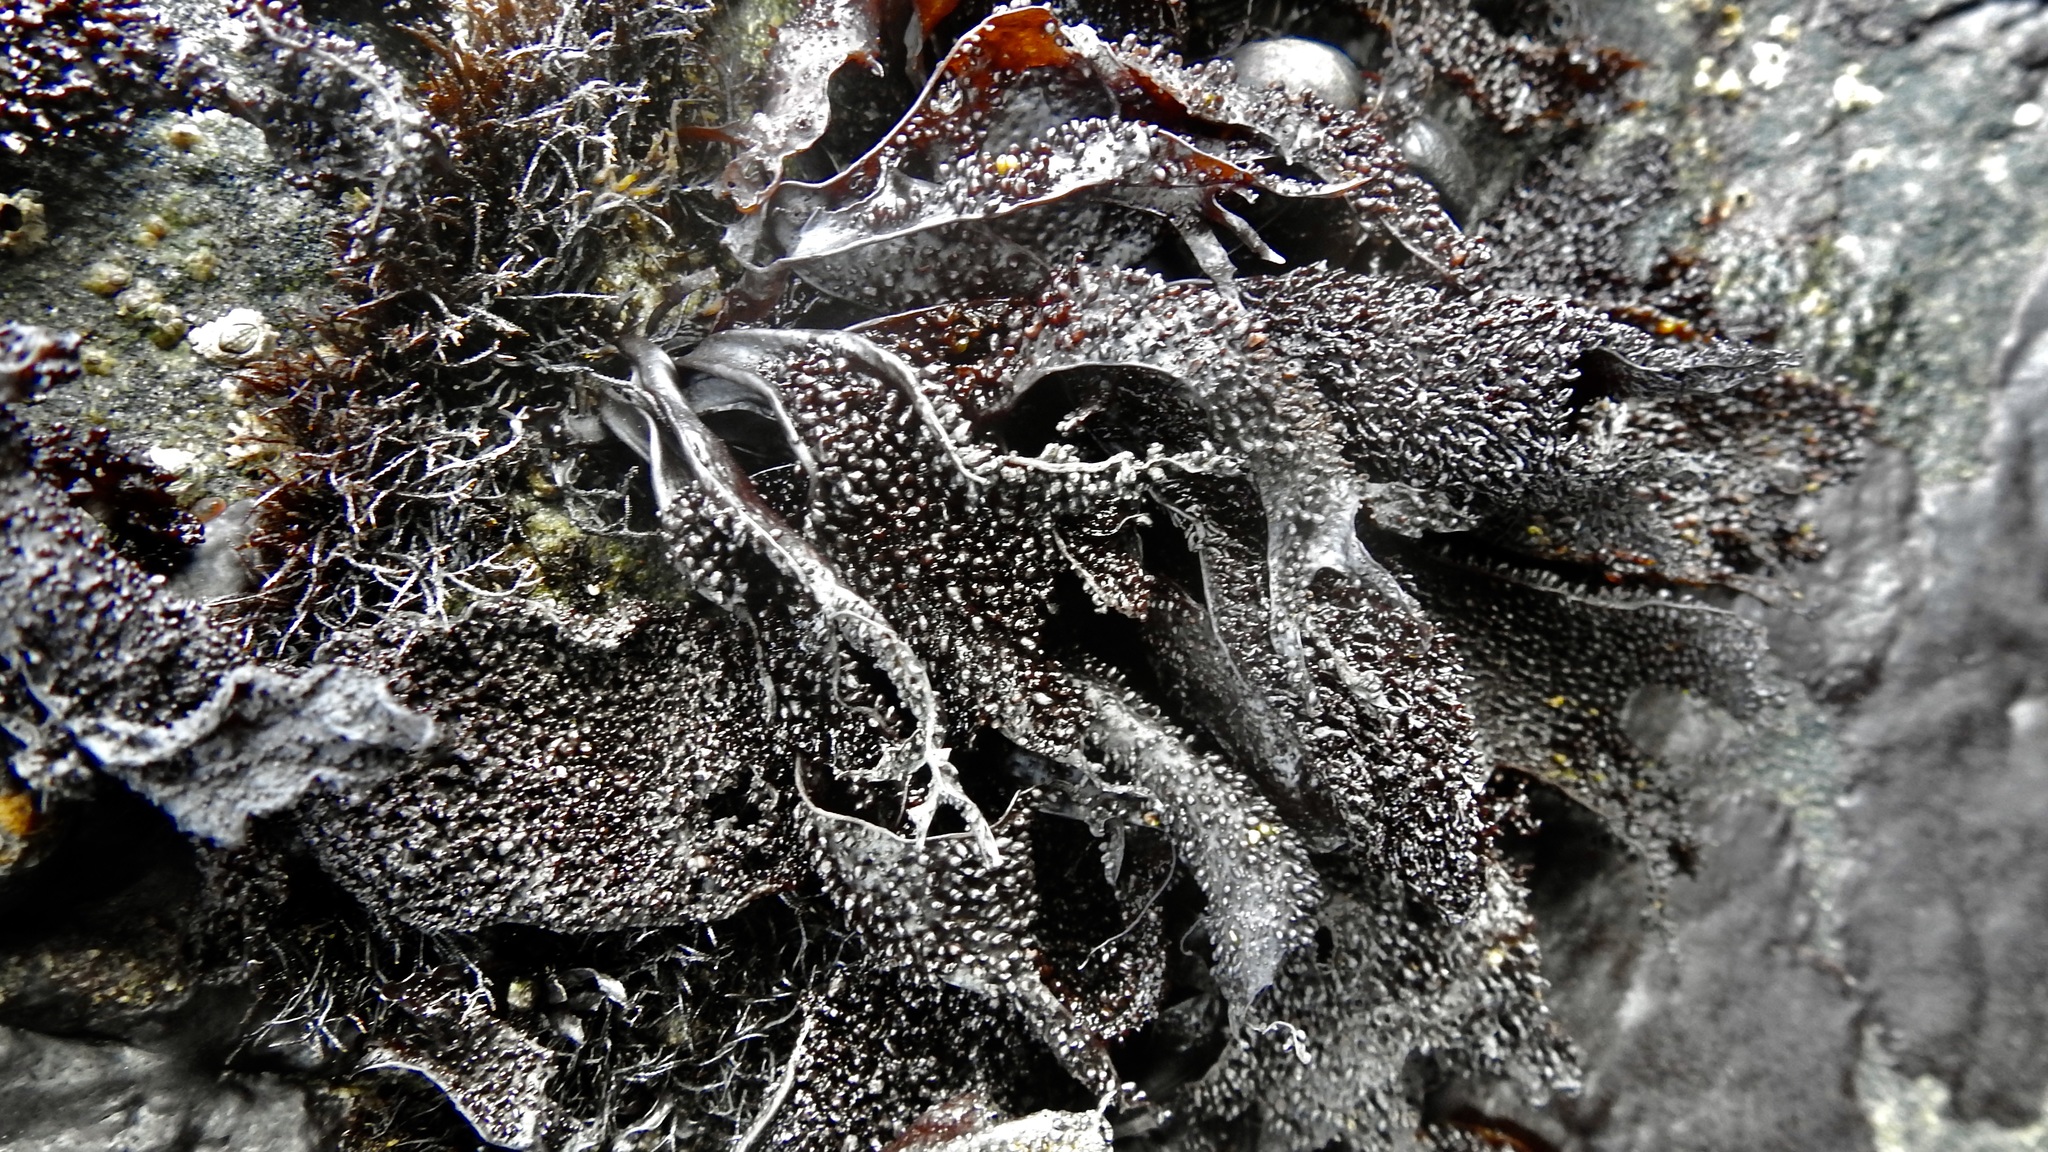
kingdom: Plantae
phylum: Rhodophyta
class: Florideophyceae
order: Gigartinales
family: Phyllophoraceae
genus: Mastocarpus
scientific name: Mastocarpus papillatus
